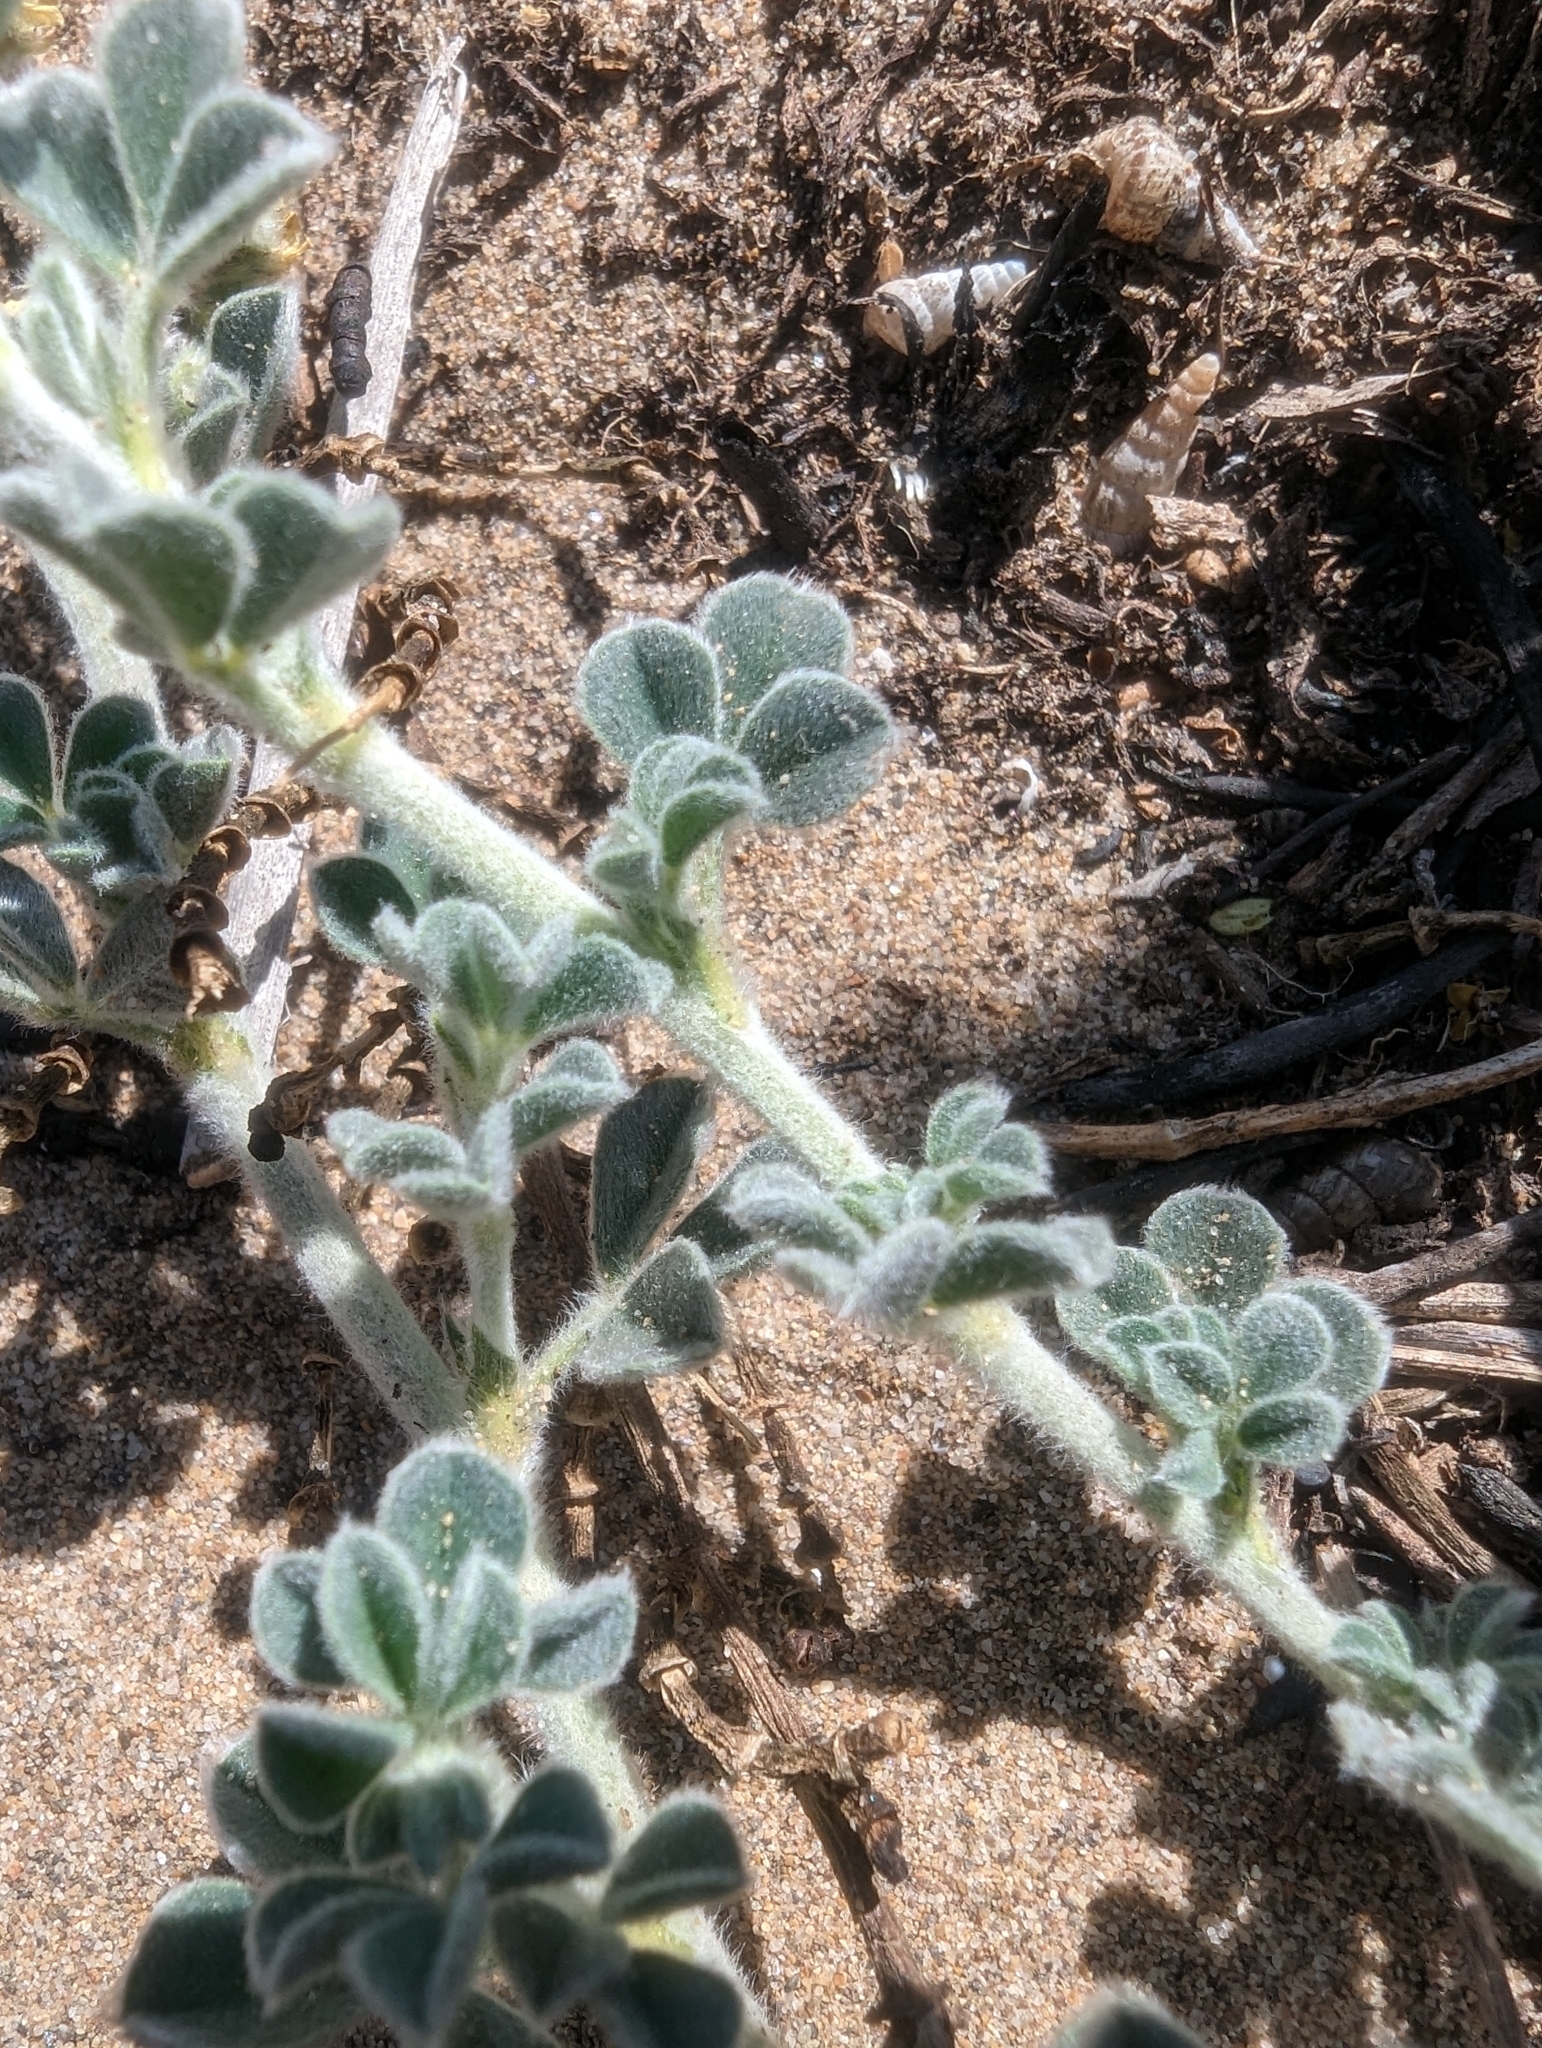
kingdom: Plantae
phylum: Tracheophyta
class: Magnoliopsida
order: Fabales
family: Fabaceae
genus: Medicago
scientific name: Medicago marina
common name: Sea medick
